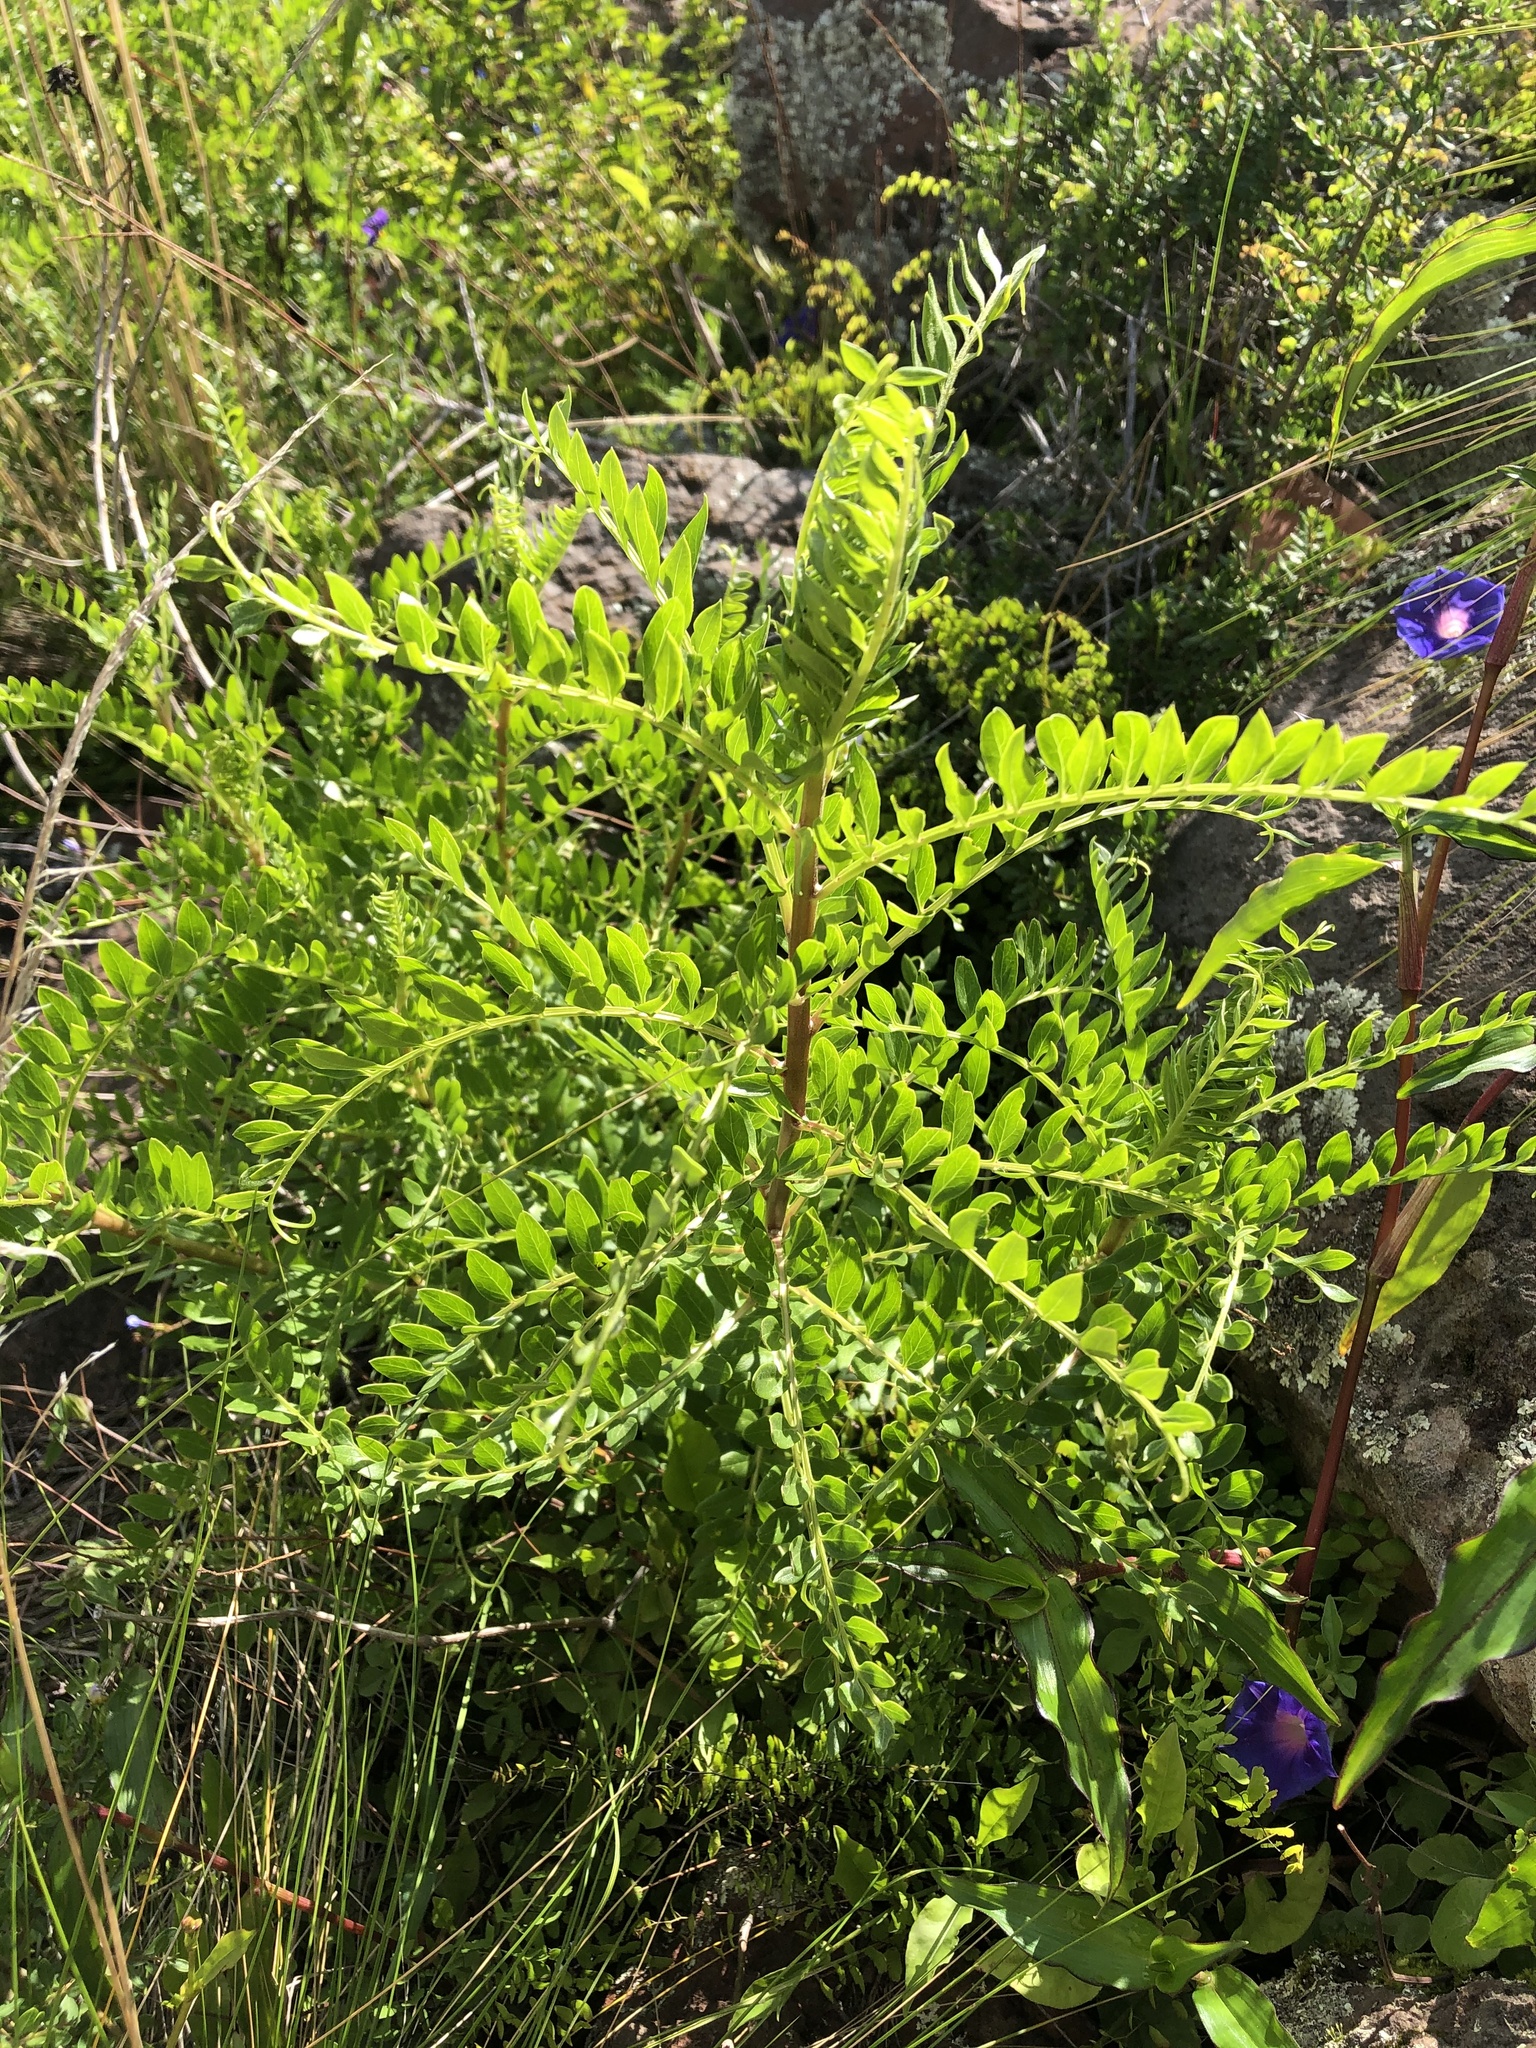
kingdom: Plantae
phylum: Tracheophyta
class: Magnoliopsida
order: Asterales
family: Asteraceae
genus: Mutisia
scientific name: Mutisia acuminata
